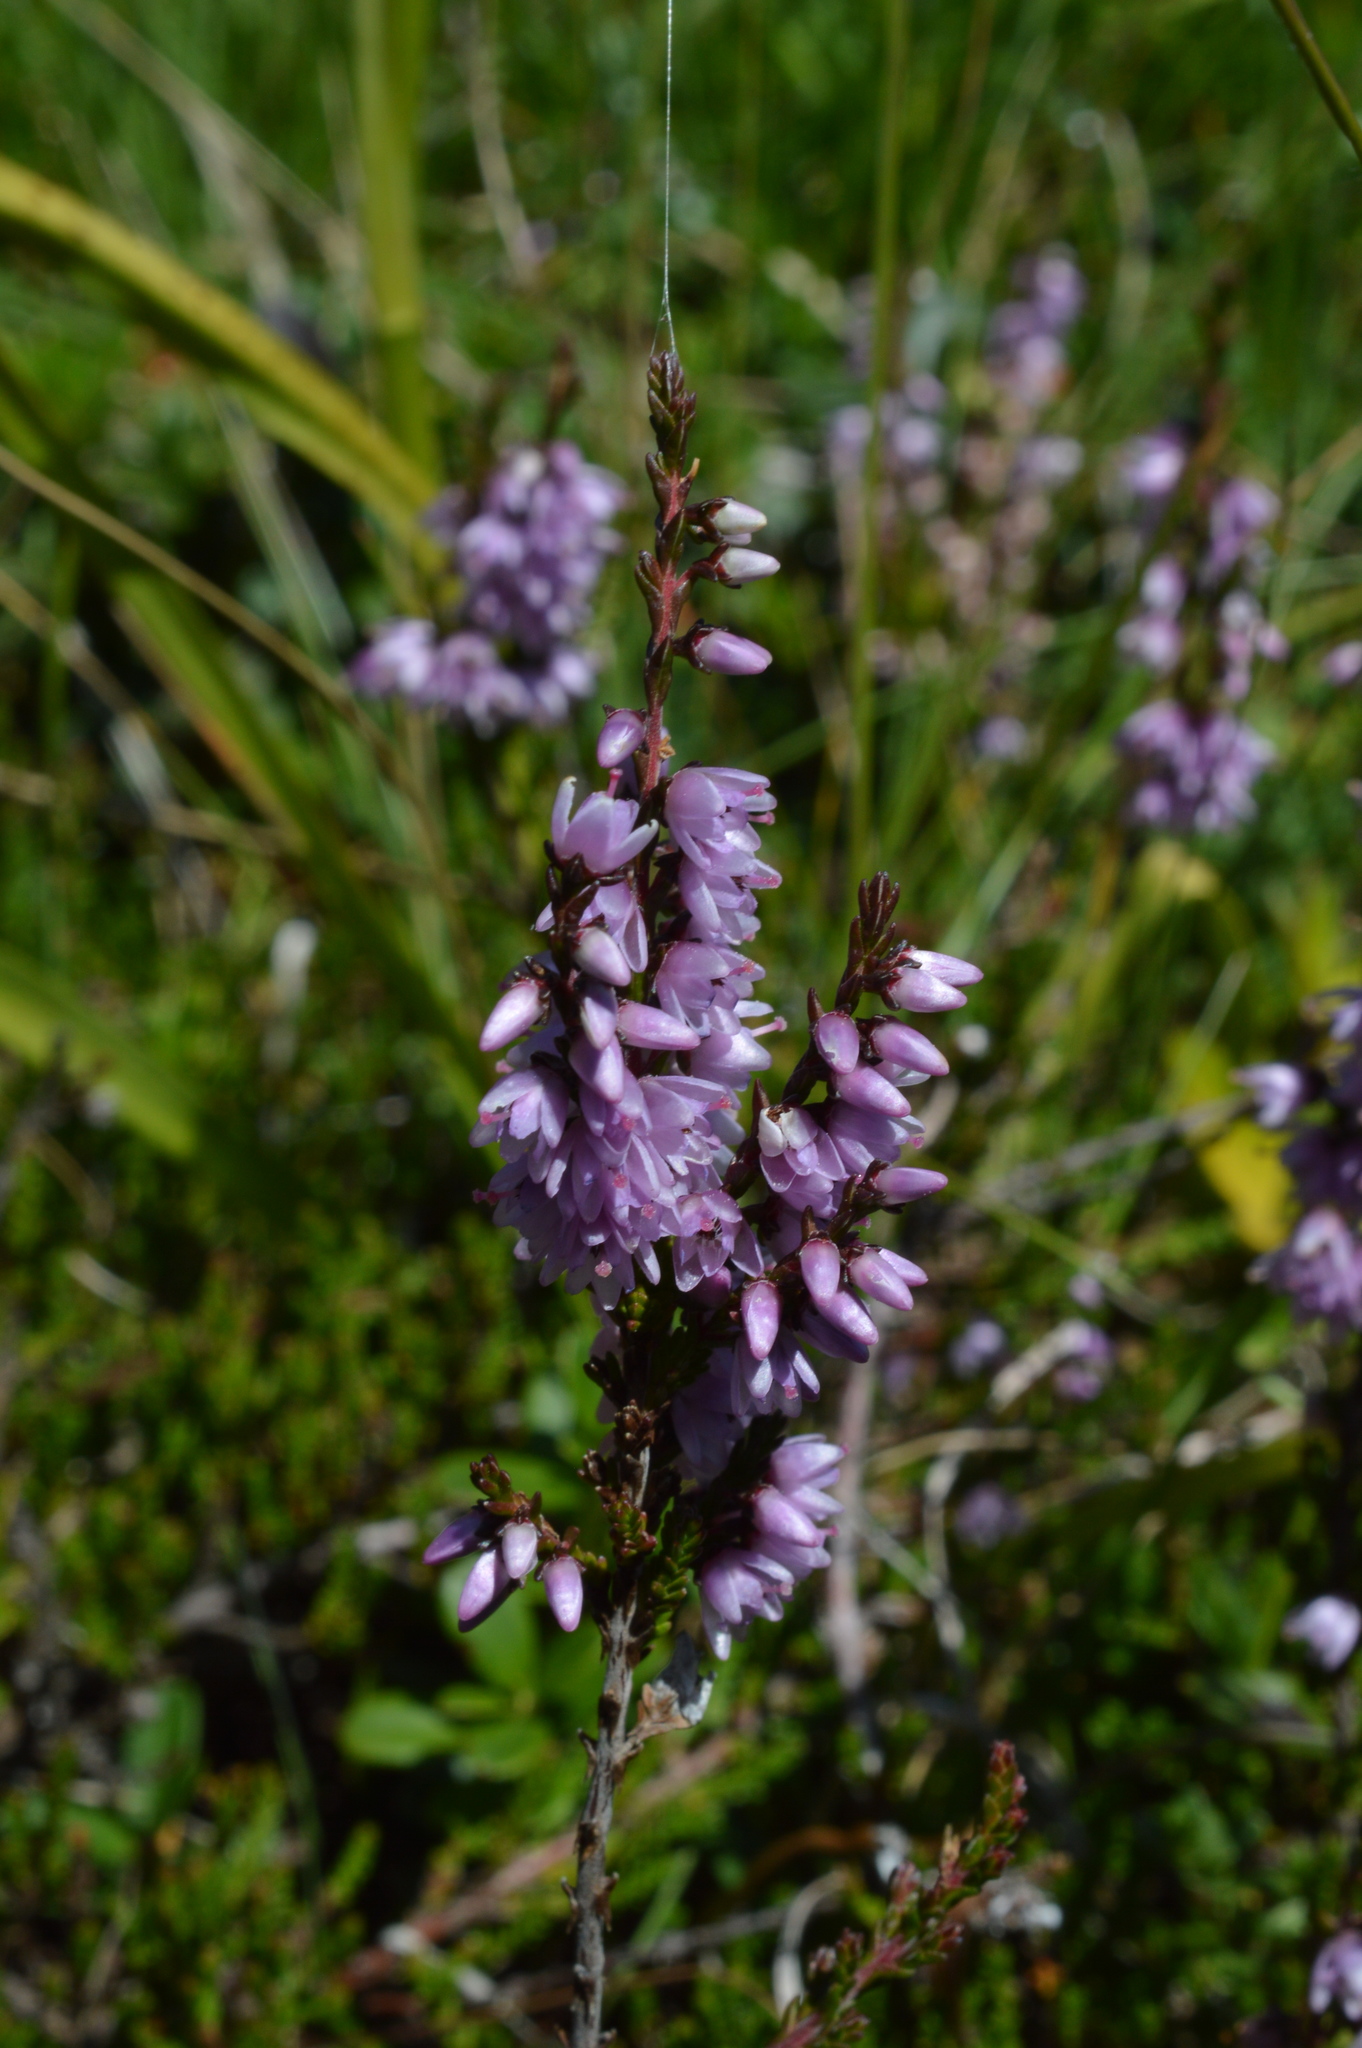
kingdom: Plantae
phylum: Tracheophyta
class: Magnoliopsida
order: Ericales
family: Ericaceae
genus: Calluna
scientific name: Calluna vulgaris
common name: Heather
